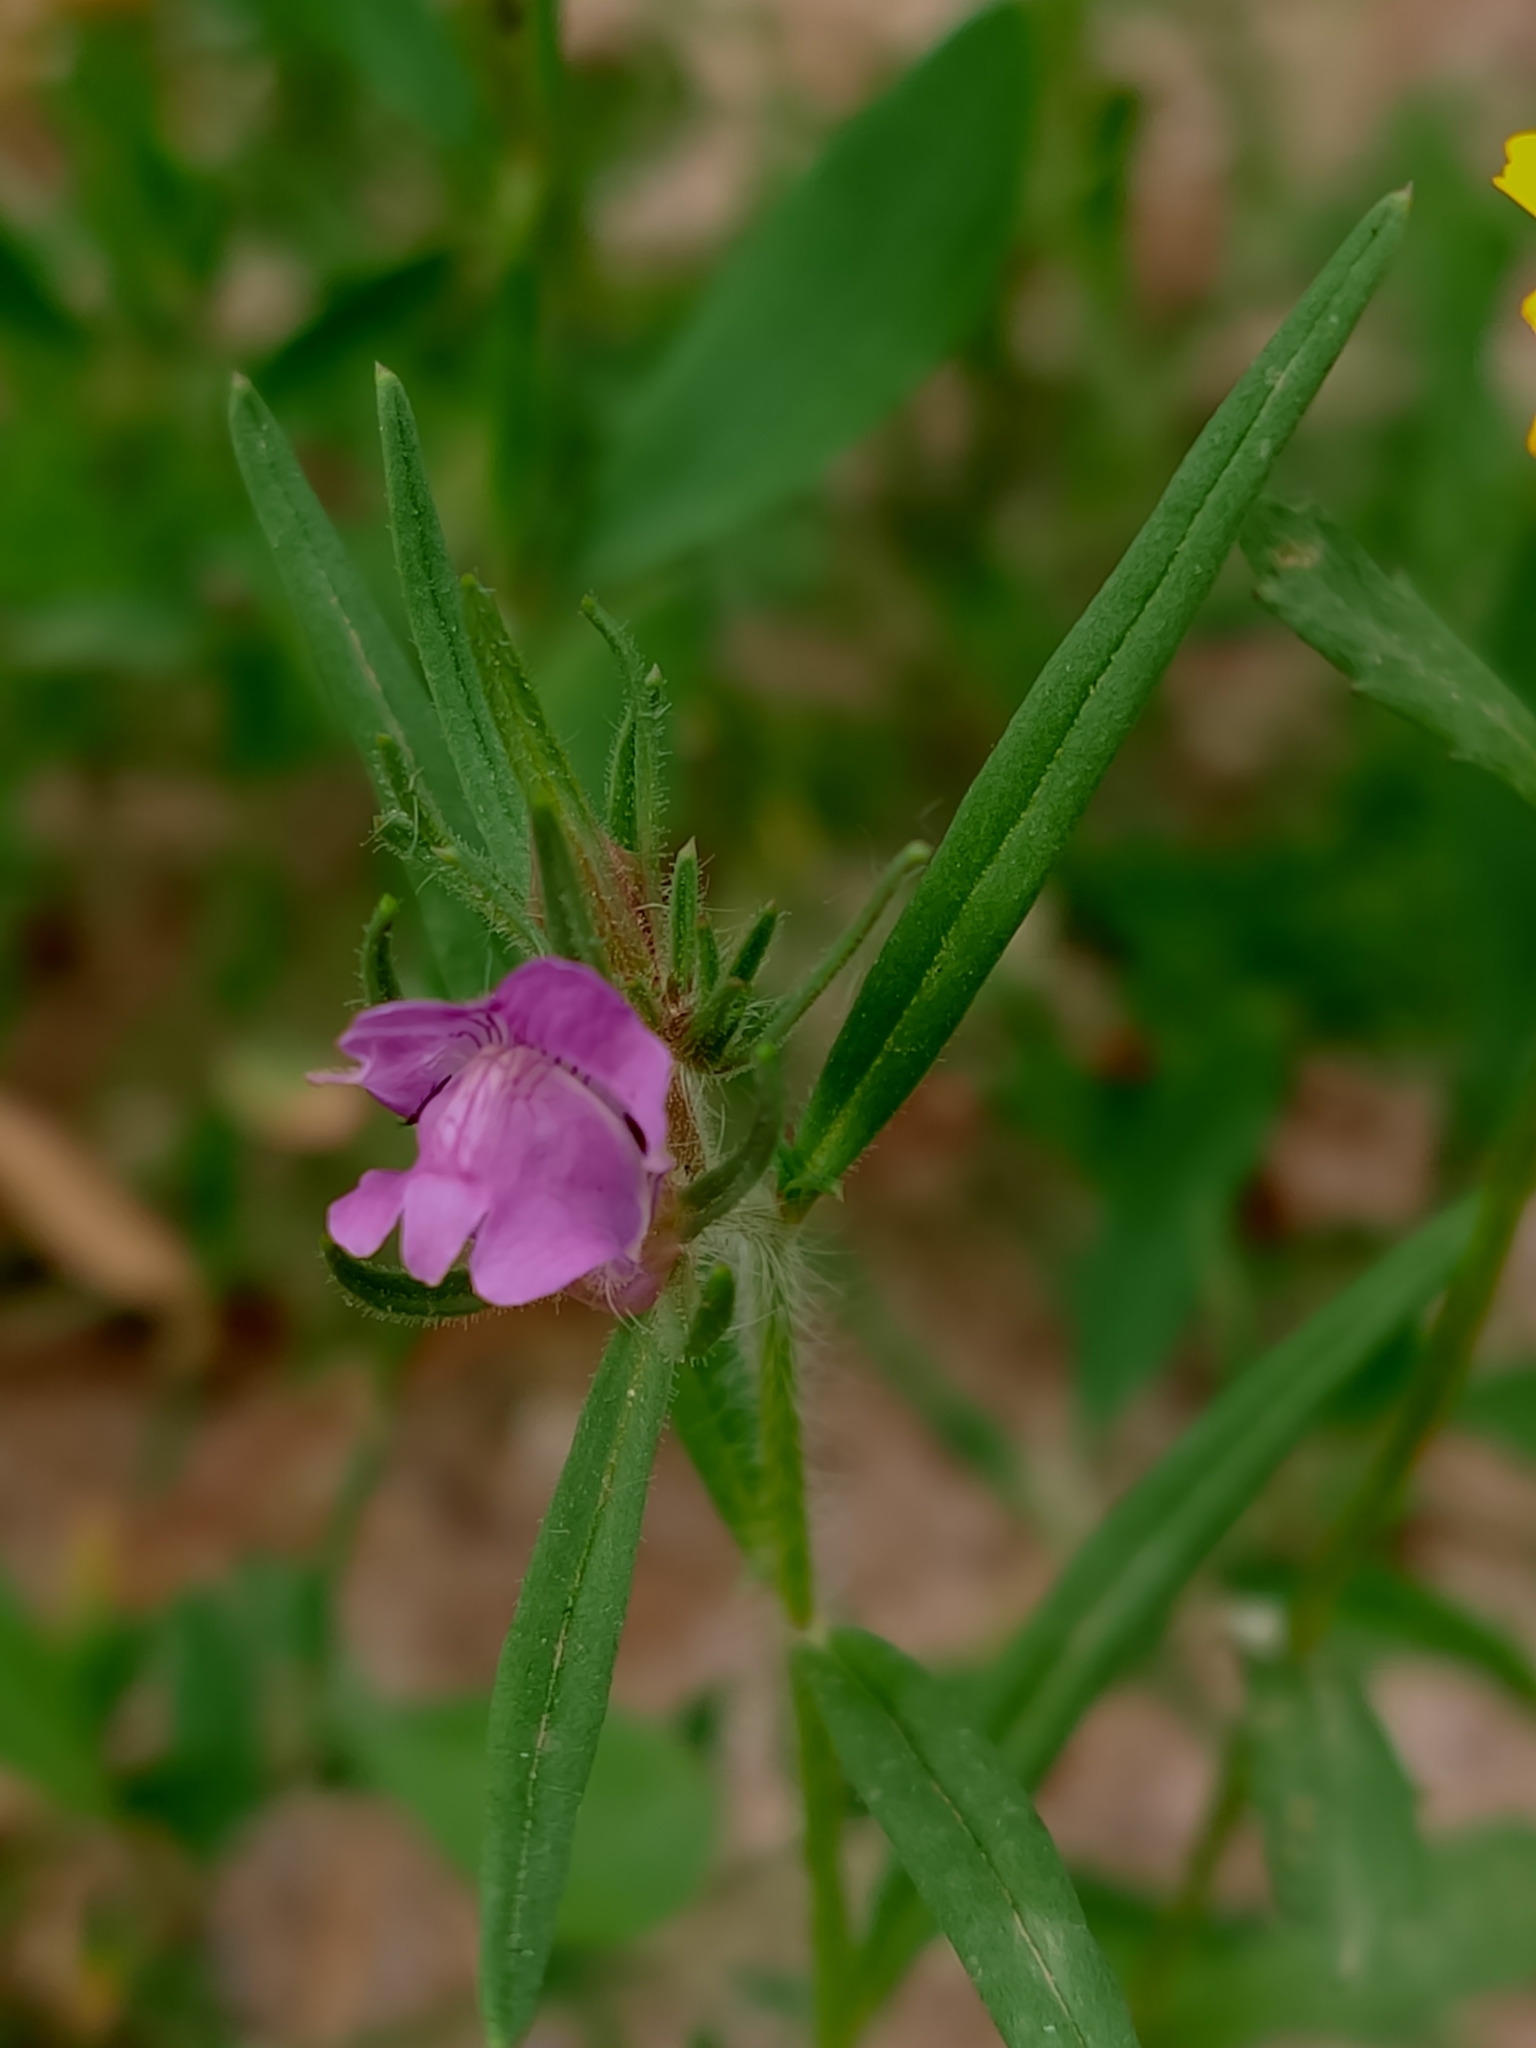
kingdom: Plantae
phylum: Tracheophyta
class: Magnoliopsida
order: Lamiales
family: Plantaginaceae
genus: Misopates
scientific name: Misopates orontium
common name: Weasel's-snout
